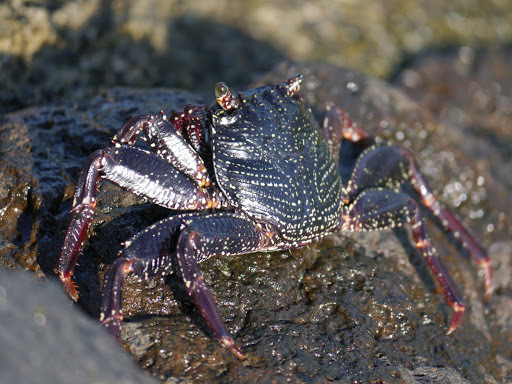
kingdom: Animalia
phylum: Arthropoda
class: Malacostraca
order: Decapoda
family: Grapsidae
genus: Grapsus
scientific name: Grapsus tenuicrustatus
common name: Natal lightfoot crab
